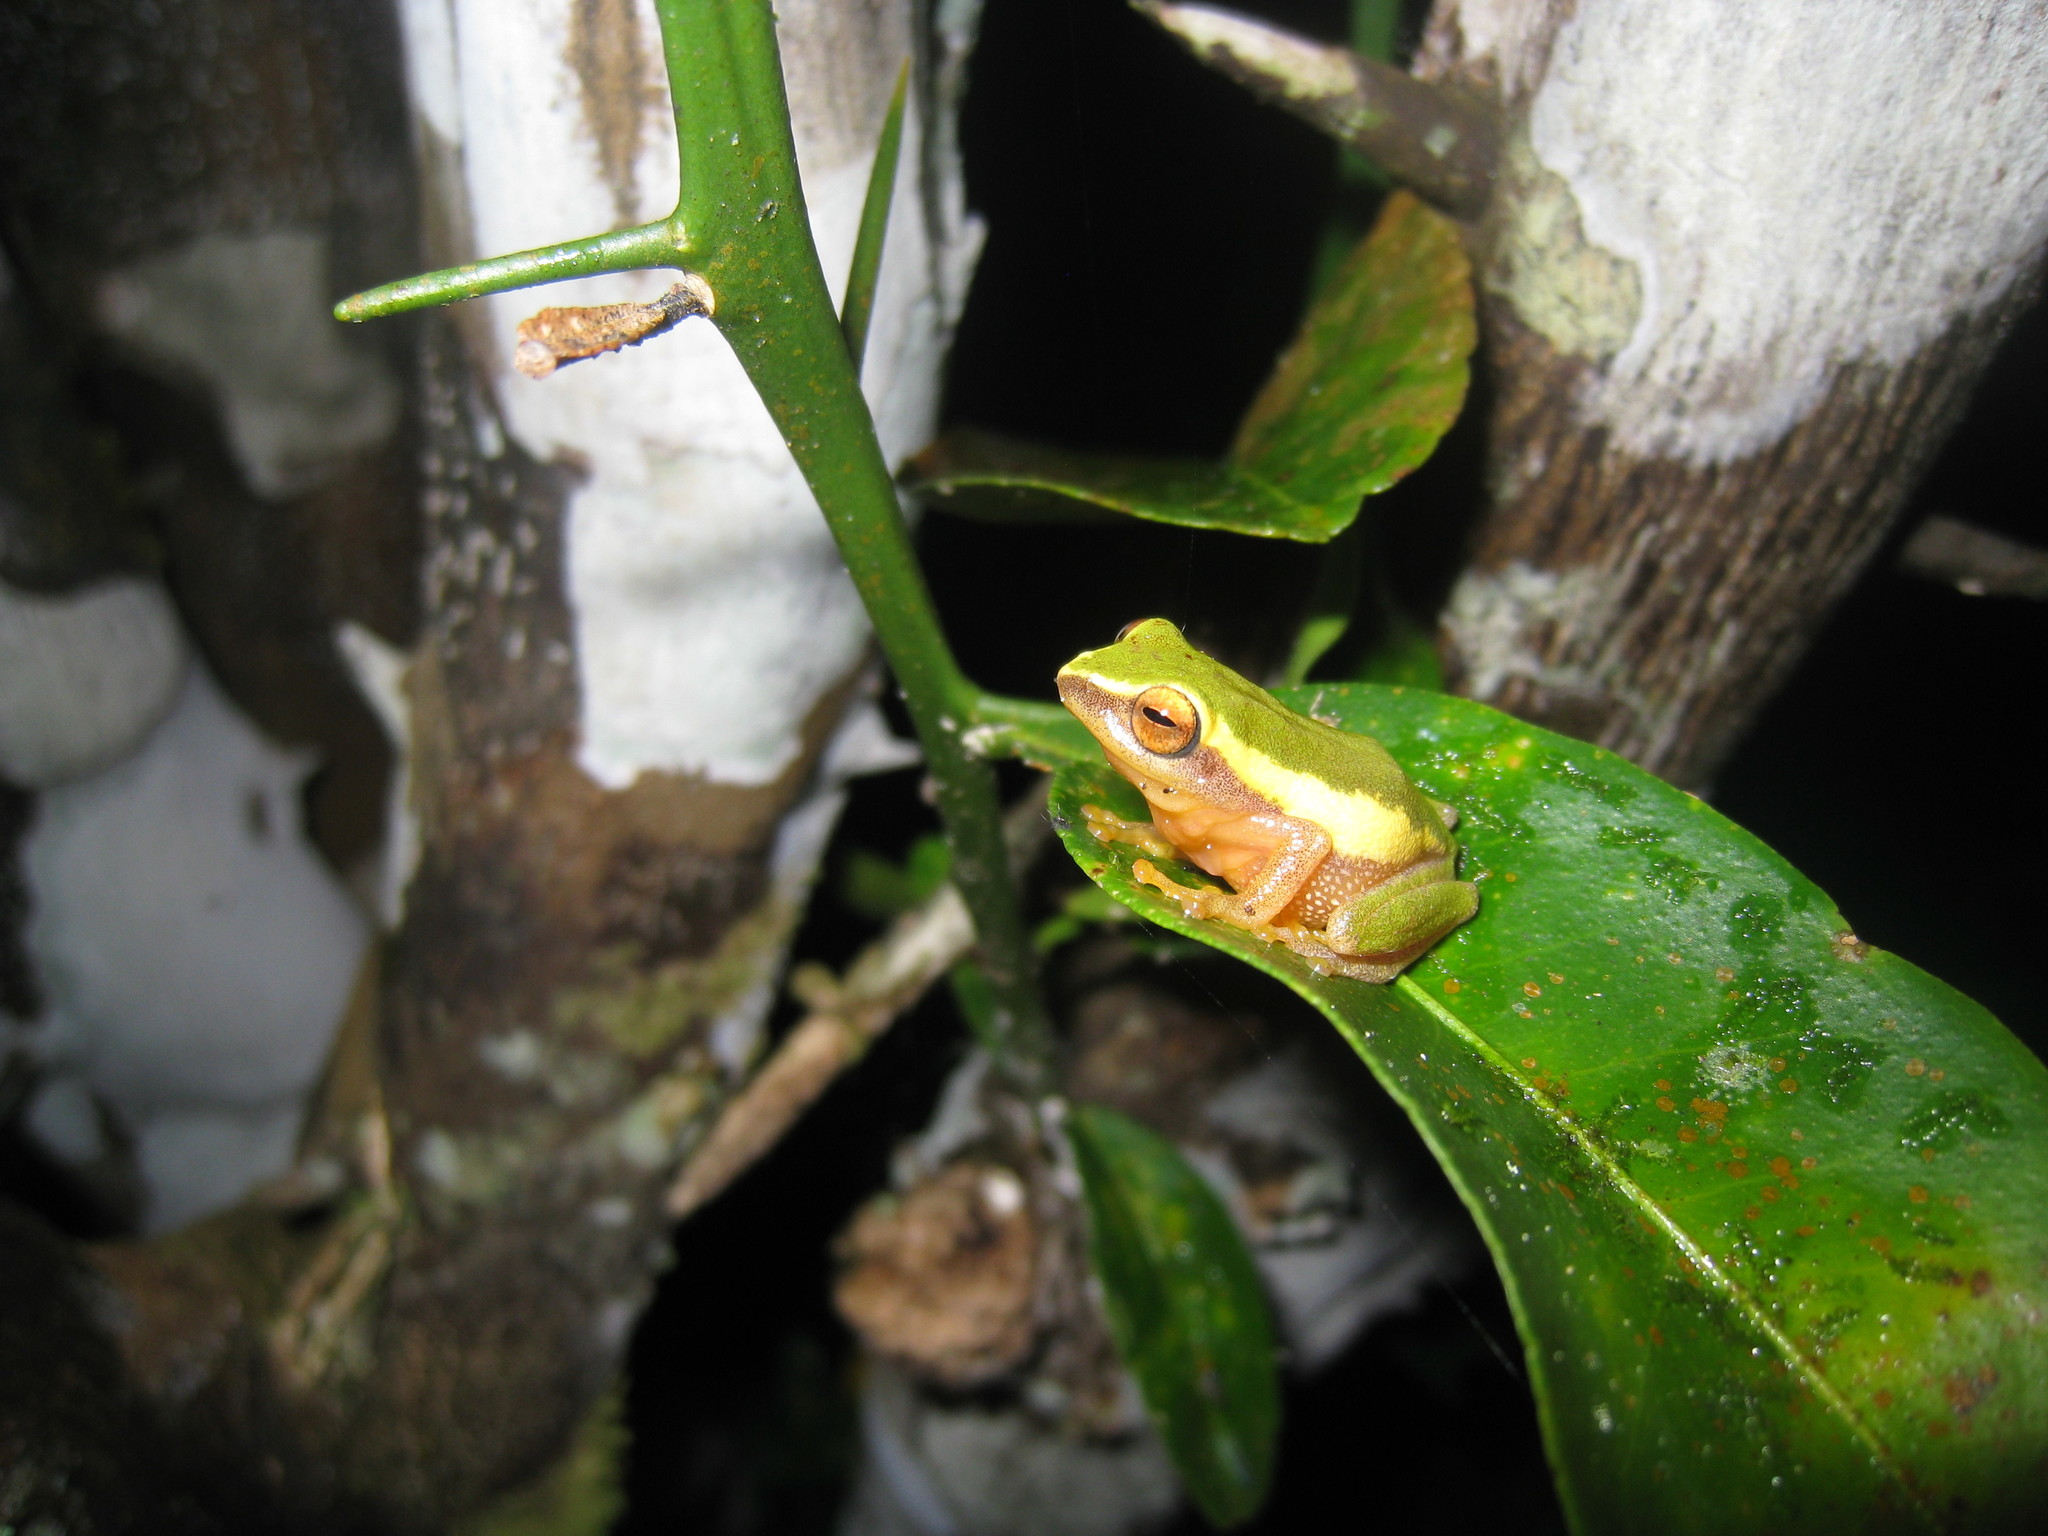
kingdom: Animalia
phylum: Chordata
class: Amphibia
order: Anura
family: Rhacophoridae
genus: Raorchestes
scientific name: Raorchestes akroparallagi
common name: Variable bush frog
